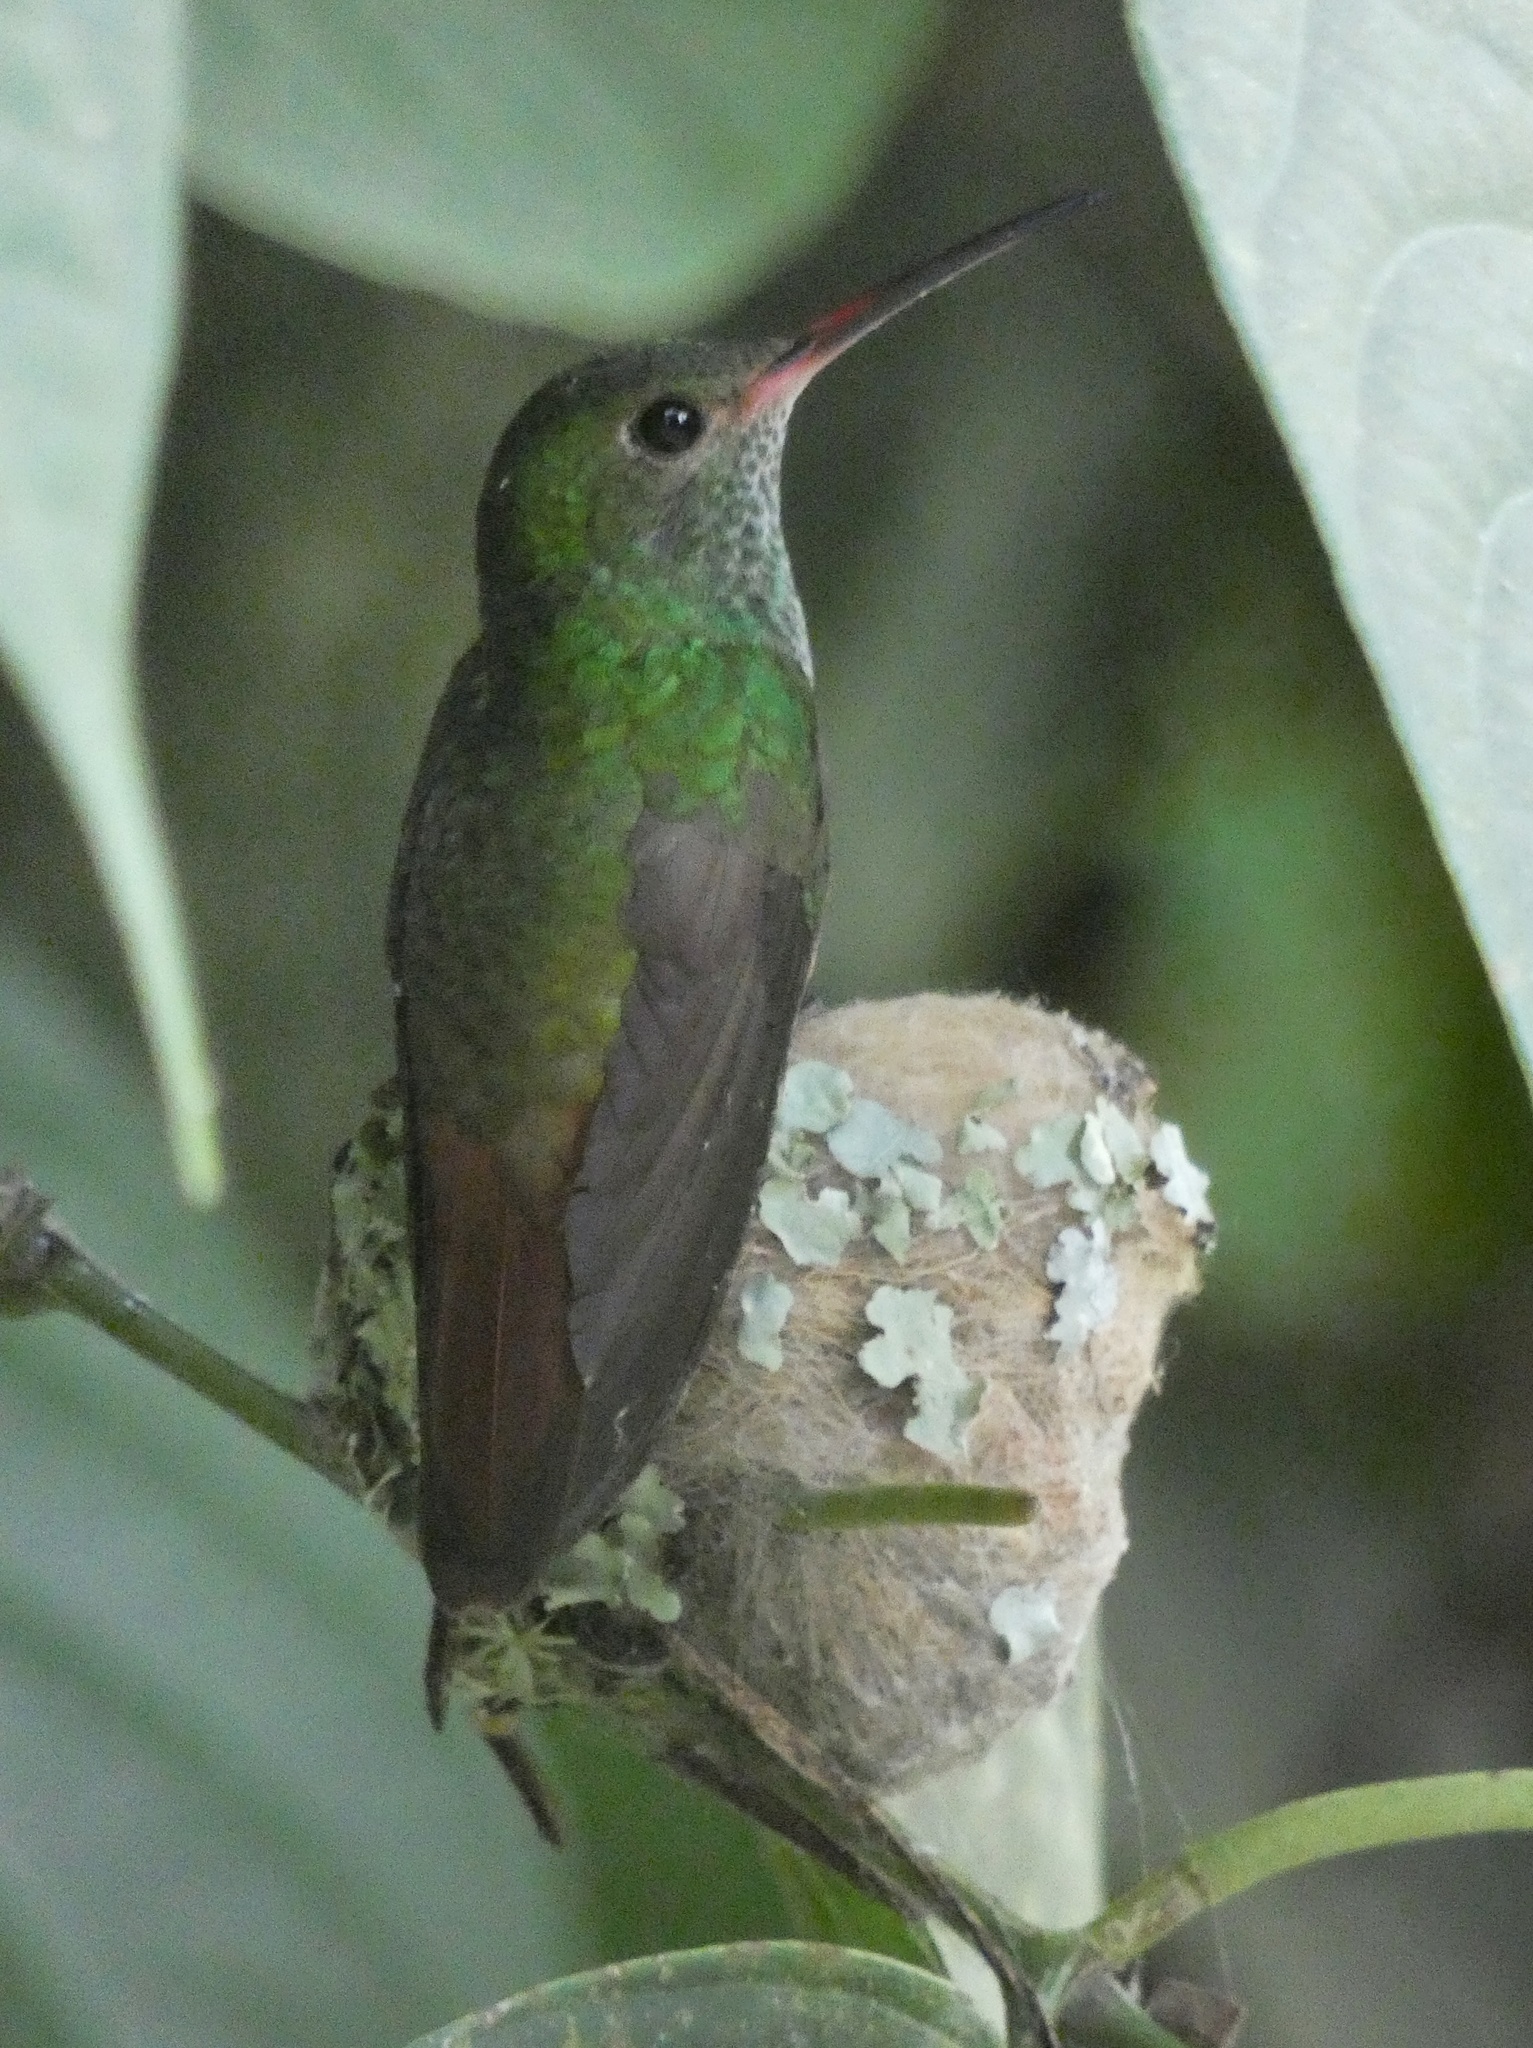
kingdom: Animalia
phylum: Chordata
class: Aves
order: Apodiformes
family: Trochilidae
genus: Amazilia
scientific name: Amazilia tzacatl
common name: Rufous-tailed hummingbird
